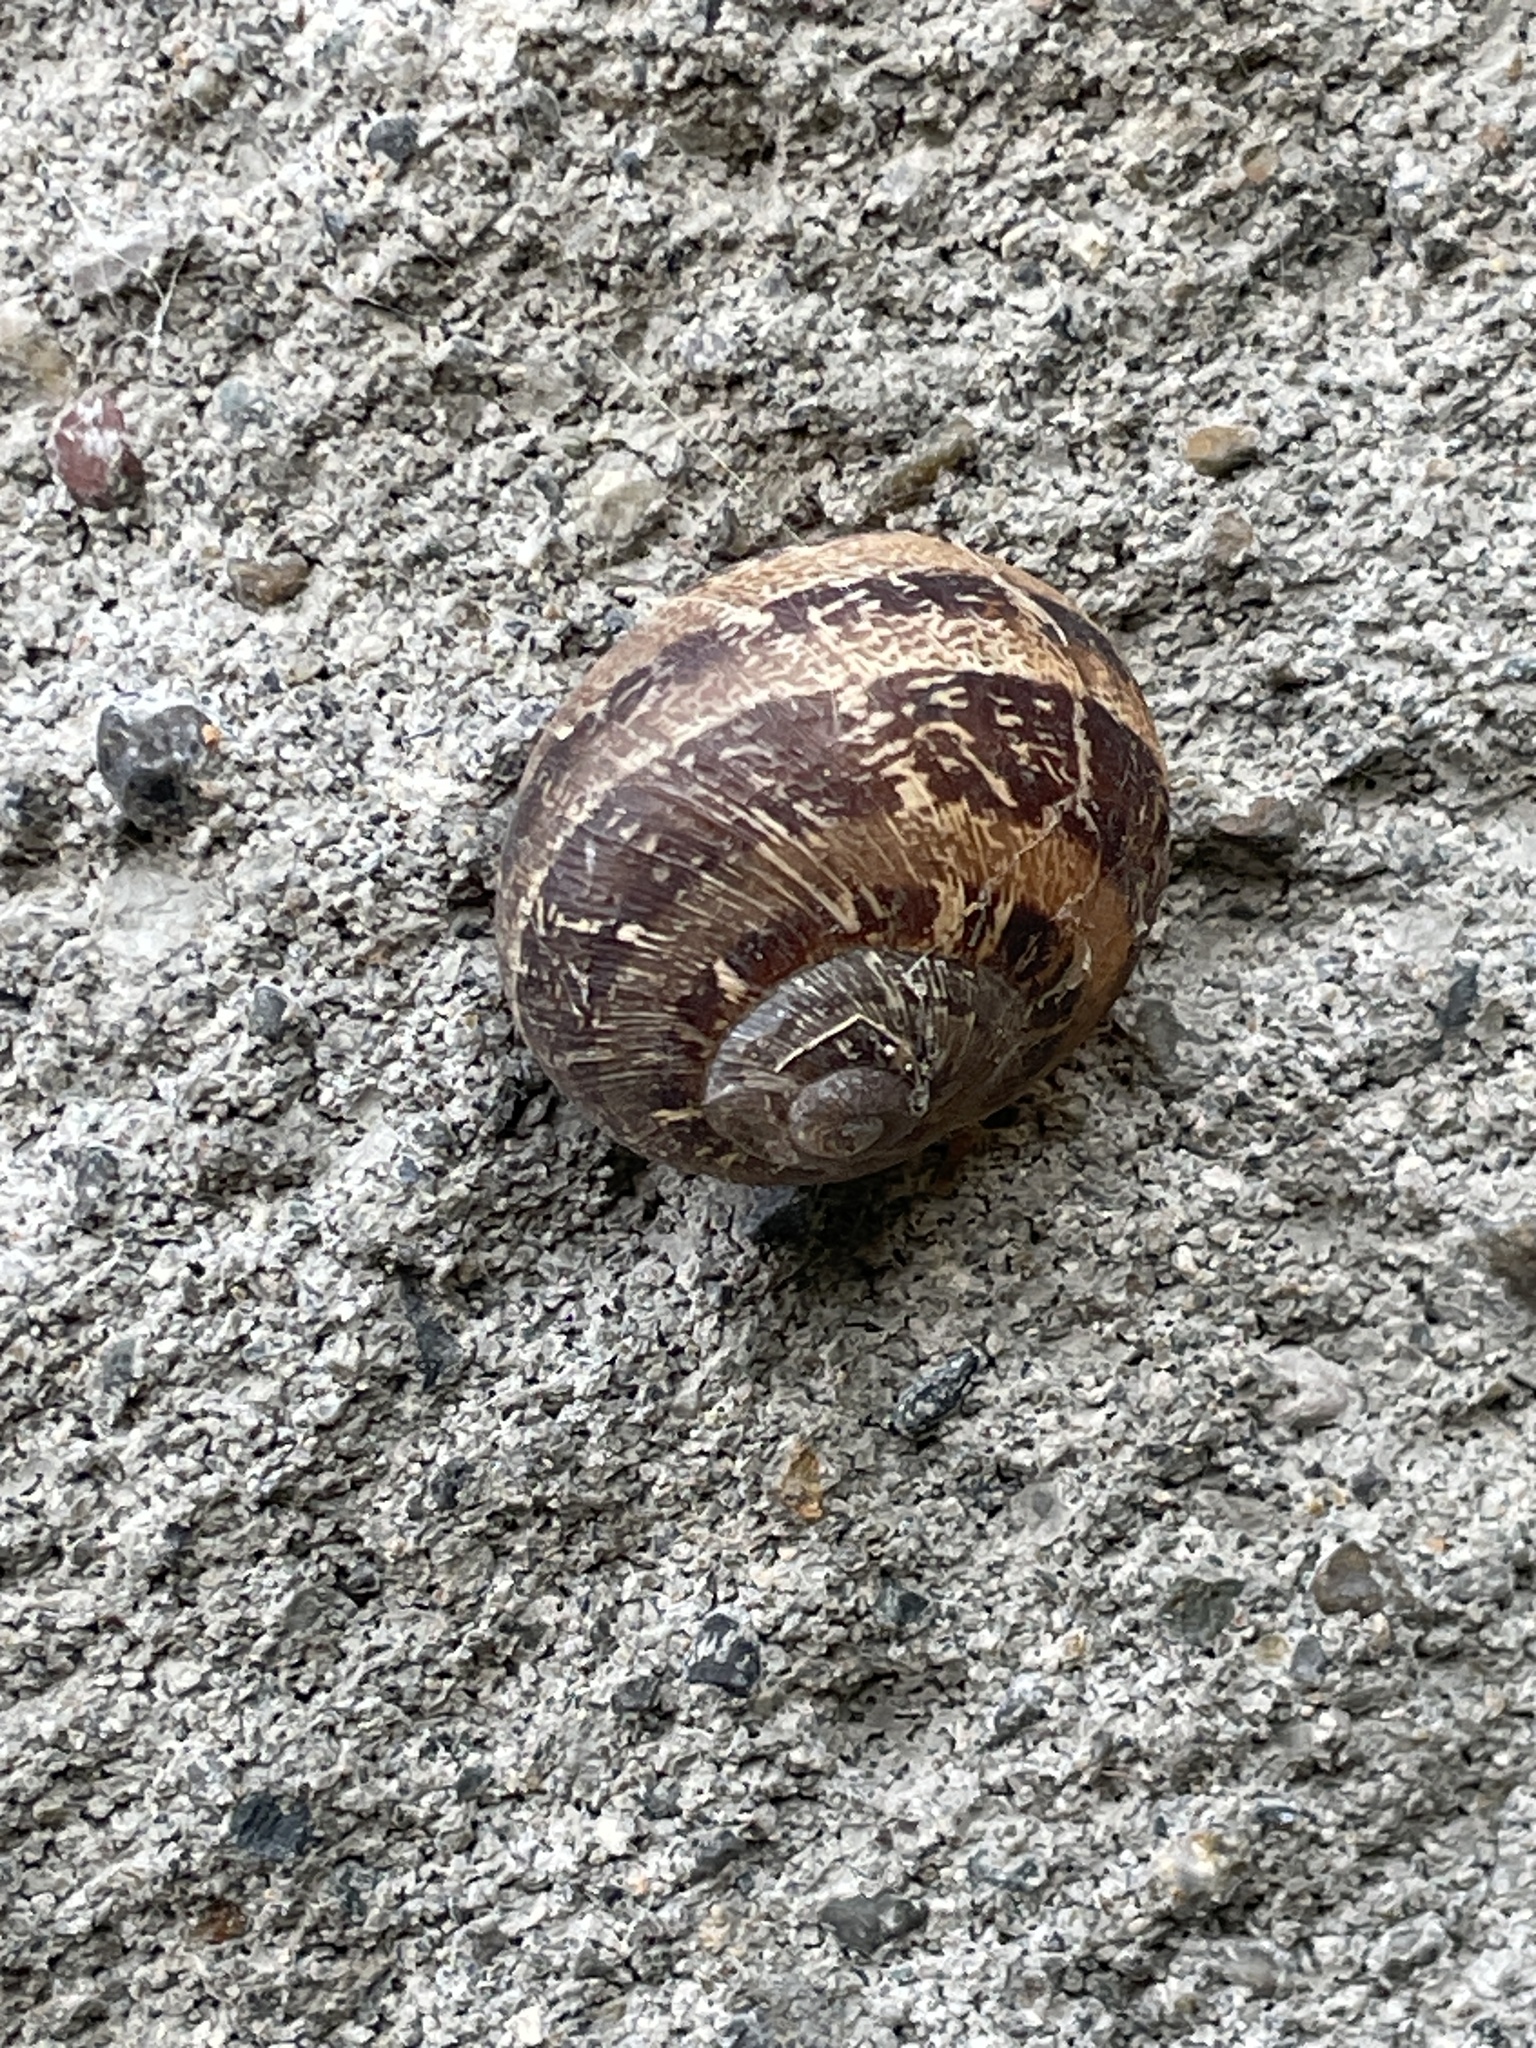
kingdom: Animalia
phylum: Mollusca
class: Gastropoda
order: Stylommatophora
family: Helicidae
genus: Cornu
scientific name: Cornu aspersum
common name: Brown garden snail
